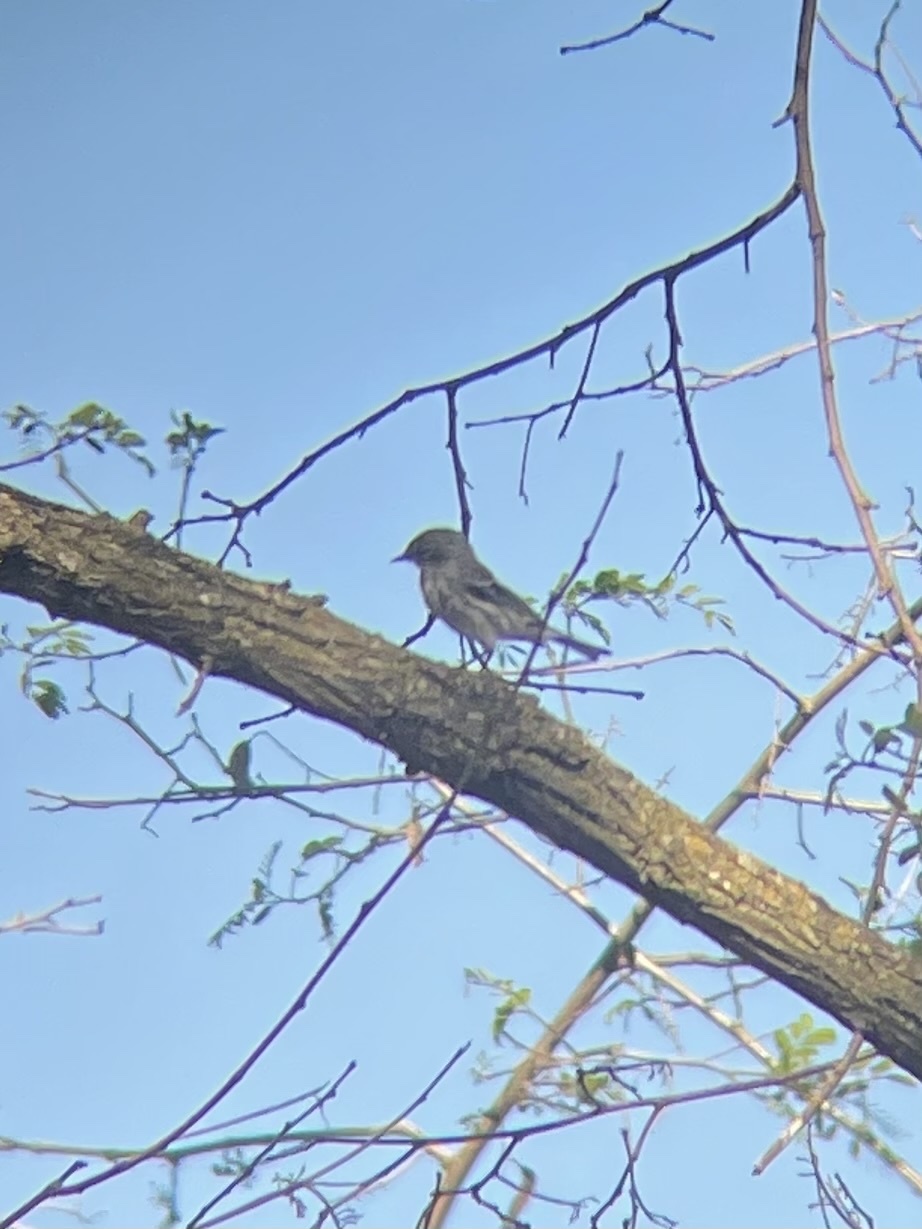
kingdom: Animalia
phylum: Chordata
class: Aves
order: Passeriformes
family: Parulidae
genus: Setophaga
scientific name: Setophaga coronata
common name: Myrtle warbler
